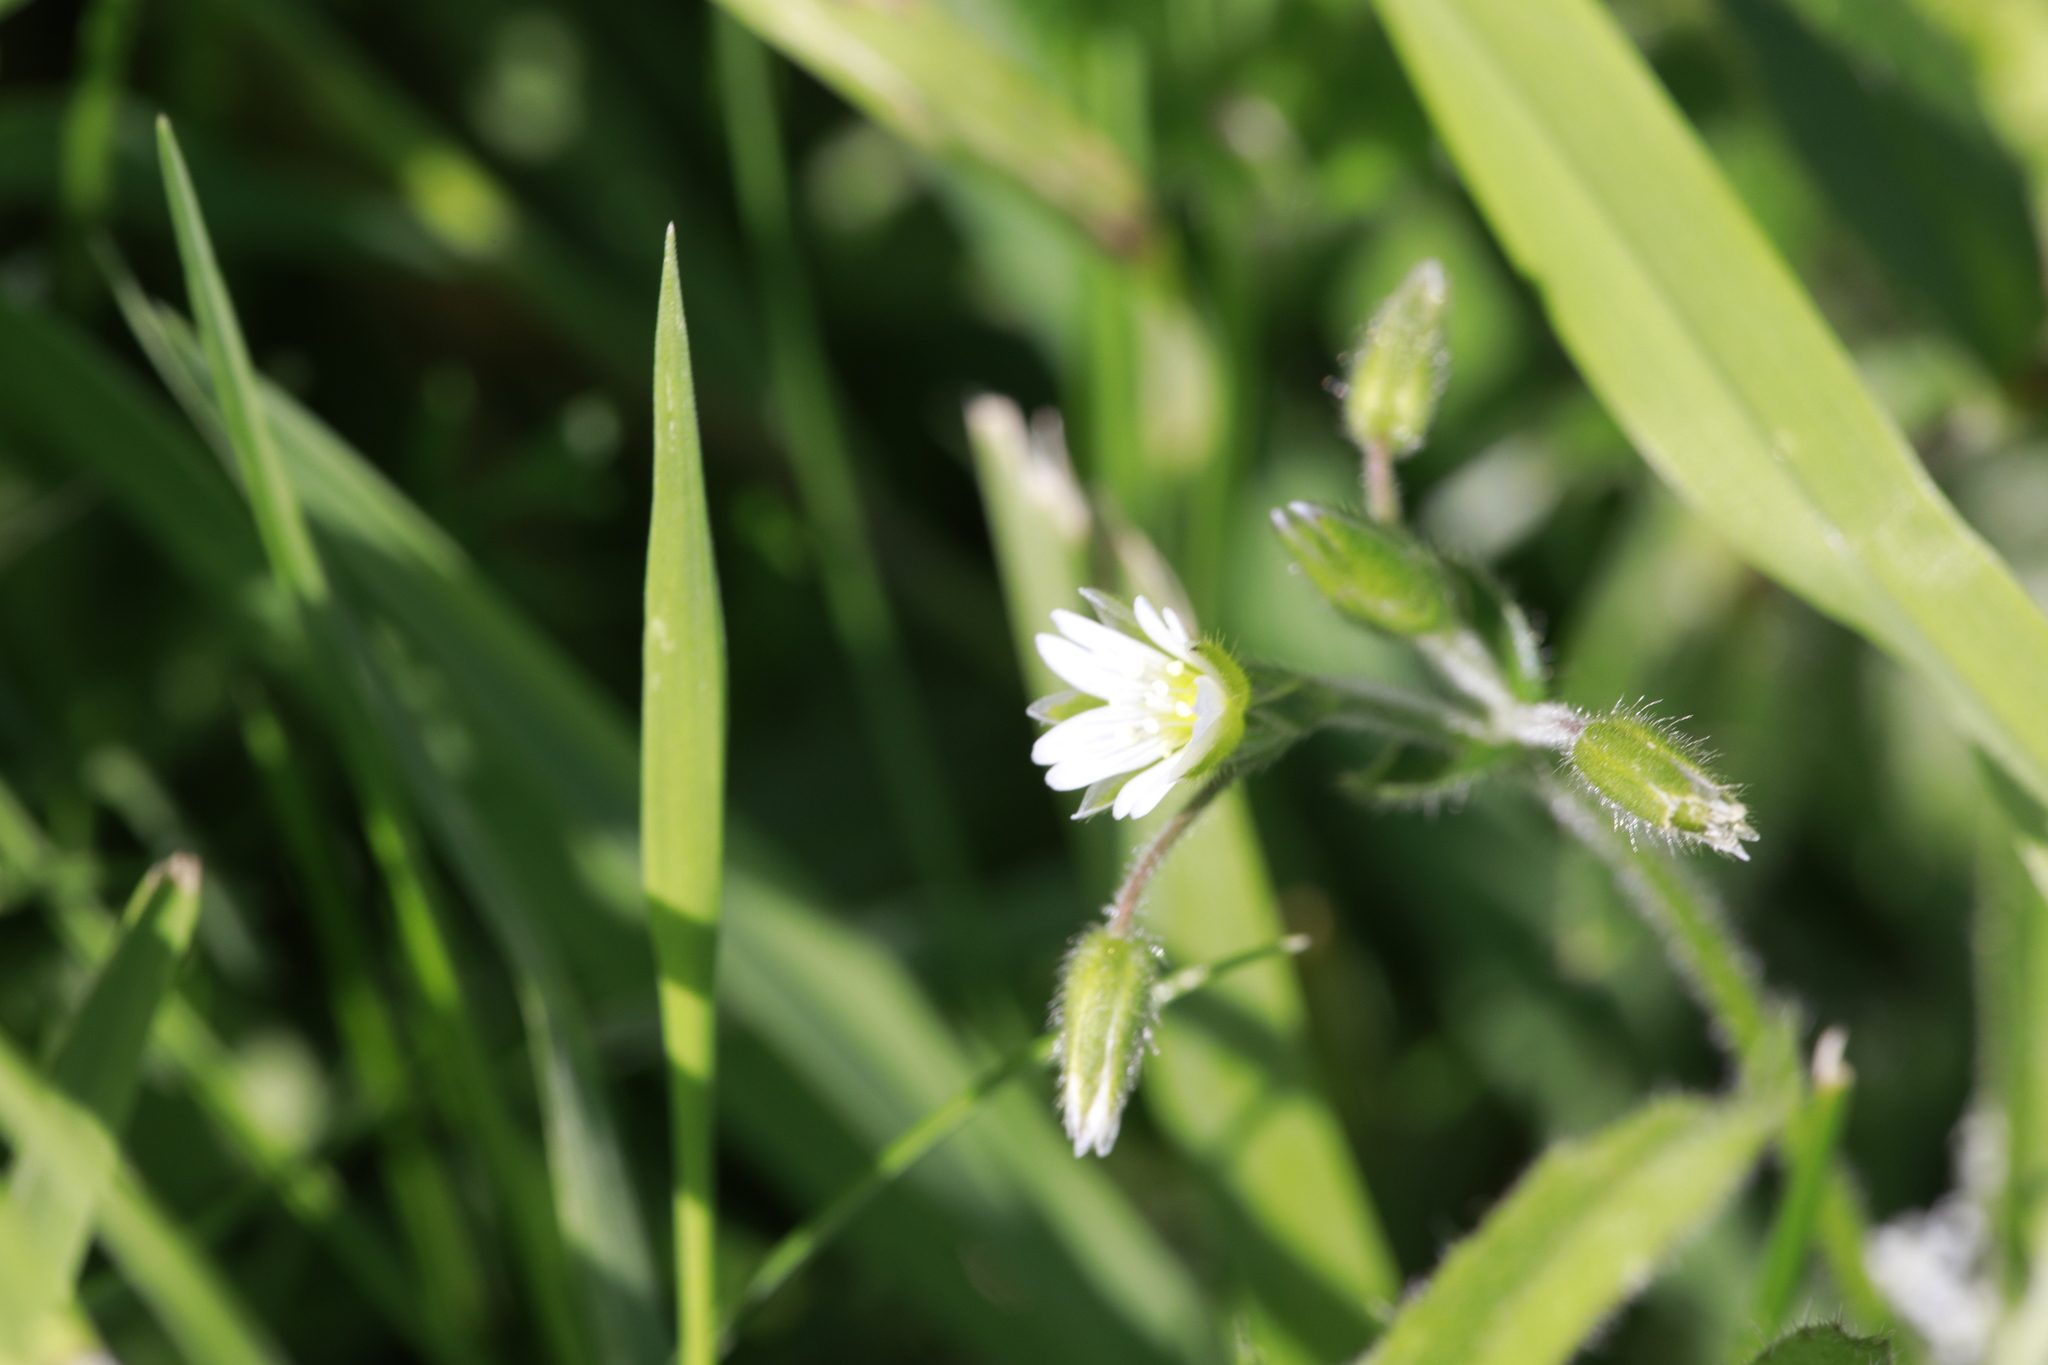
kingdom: Plantae
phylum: Tracheophyta
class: Magnoliopsida
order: Caryophyllales
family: Caryophyllaceae
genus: Cerastium
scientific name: Cerastium fontanum
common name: Common mouse-ear
